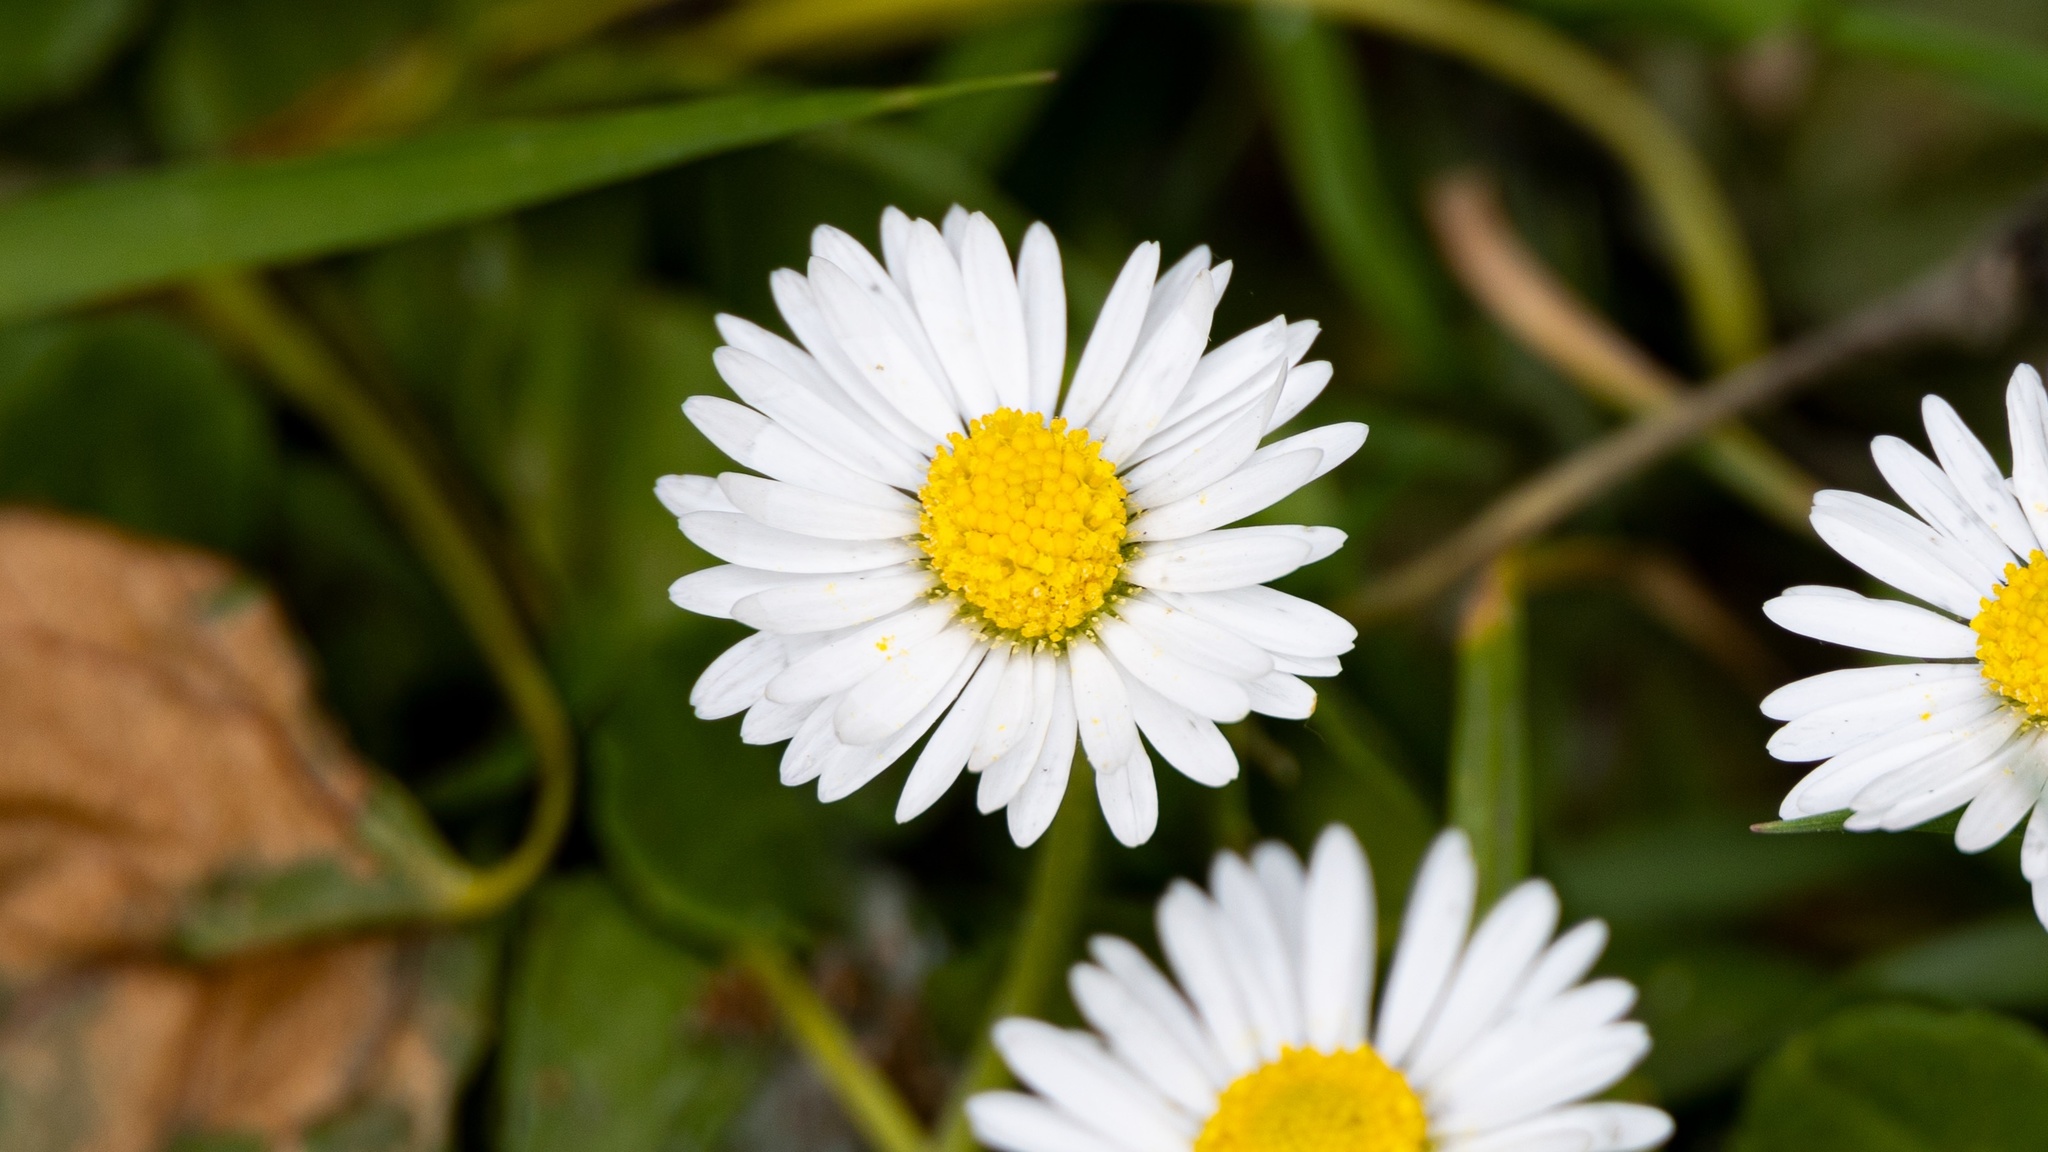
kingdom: Plantae
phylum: Tracheophyta
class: Magnoliopsida
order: Asterales
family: Asteraceae
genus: Bellis
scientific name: Bellis perennis
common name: Lawndaisy
